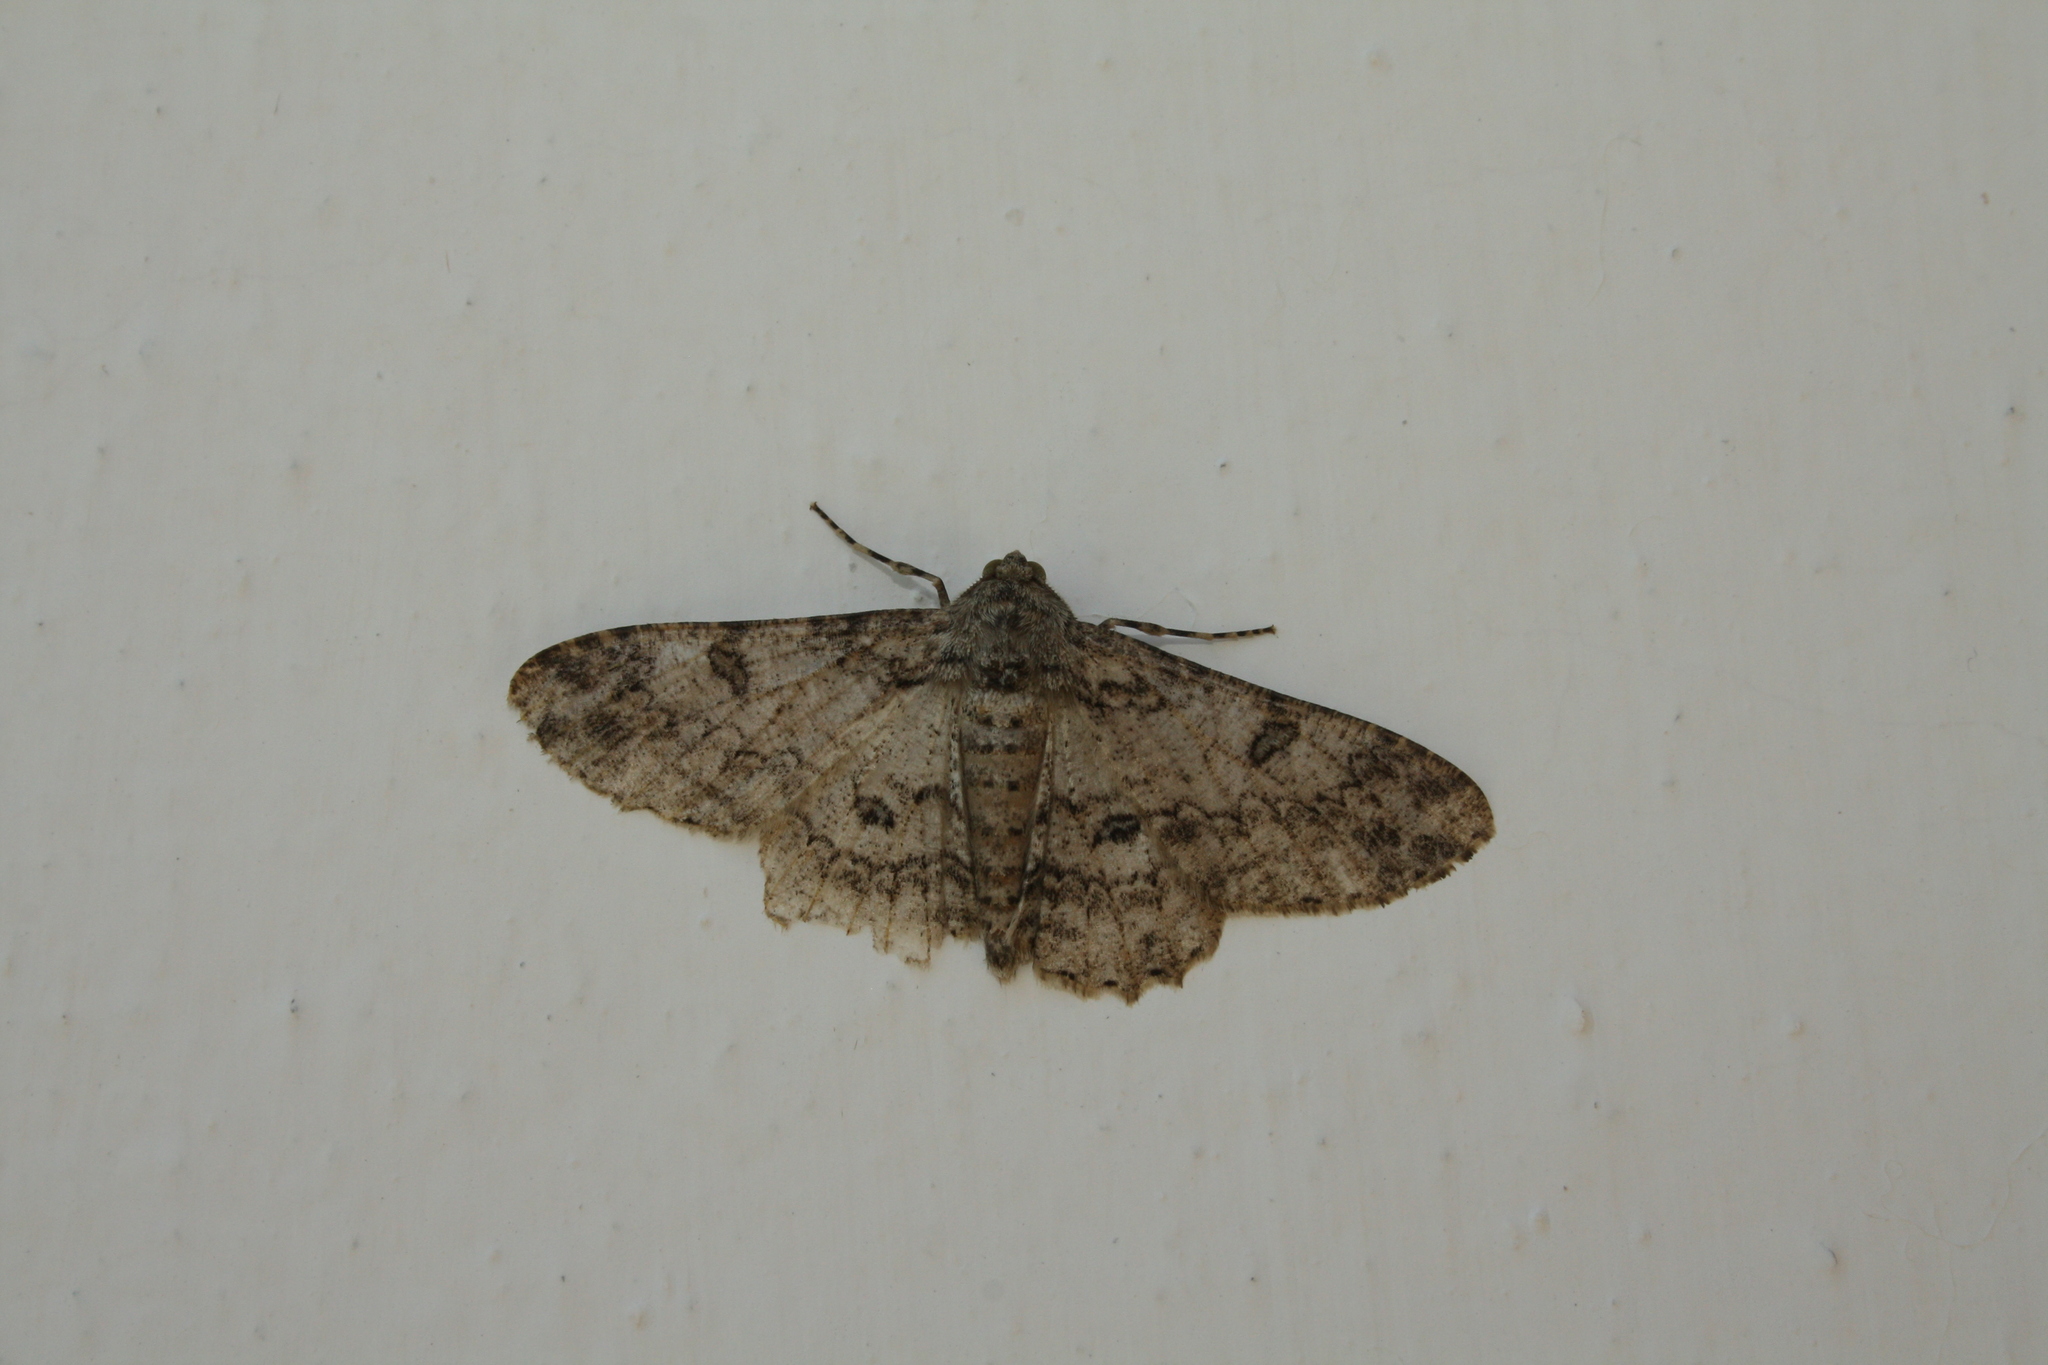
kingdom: Animalia
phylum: Arthropoda
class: Insecta
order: Lepidoptera
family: Geometridae
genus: Ascotis
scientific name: Ascotis selenaria
